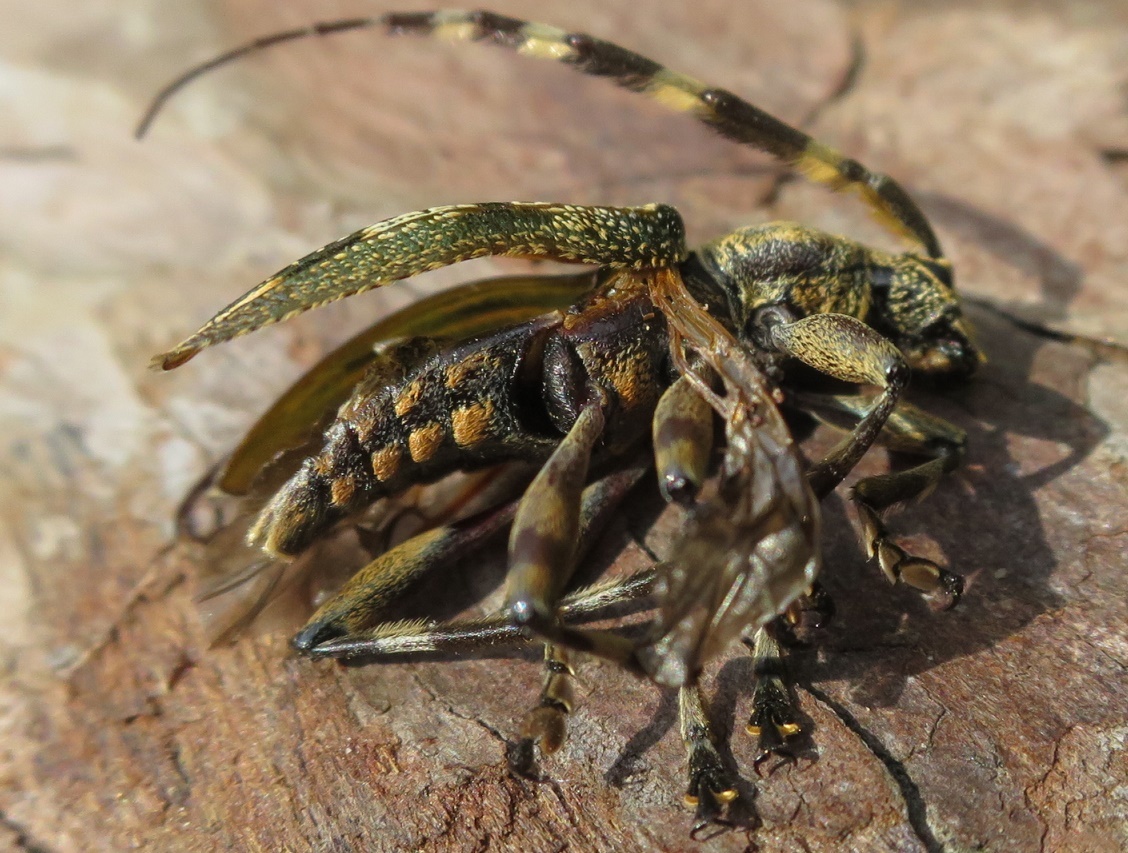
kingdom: Animalia
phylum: Arthropoda
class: Insecta
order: Coleoptera
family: Cerambycidae
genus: Hexatricha
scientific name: Hexatricha pulverulenta
